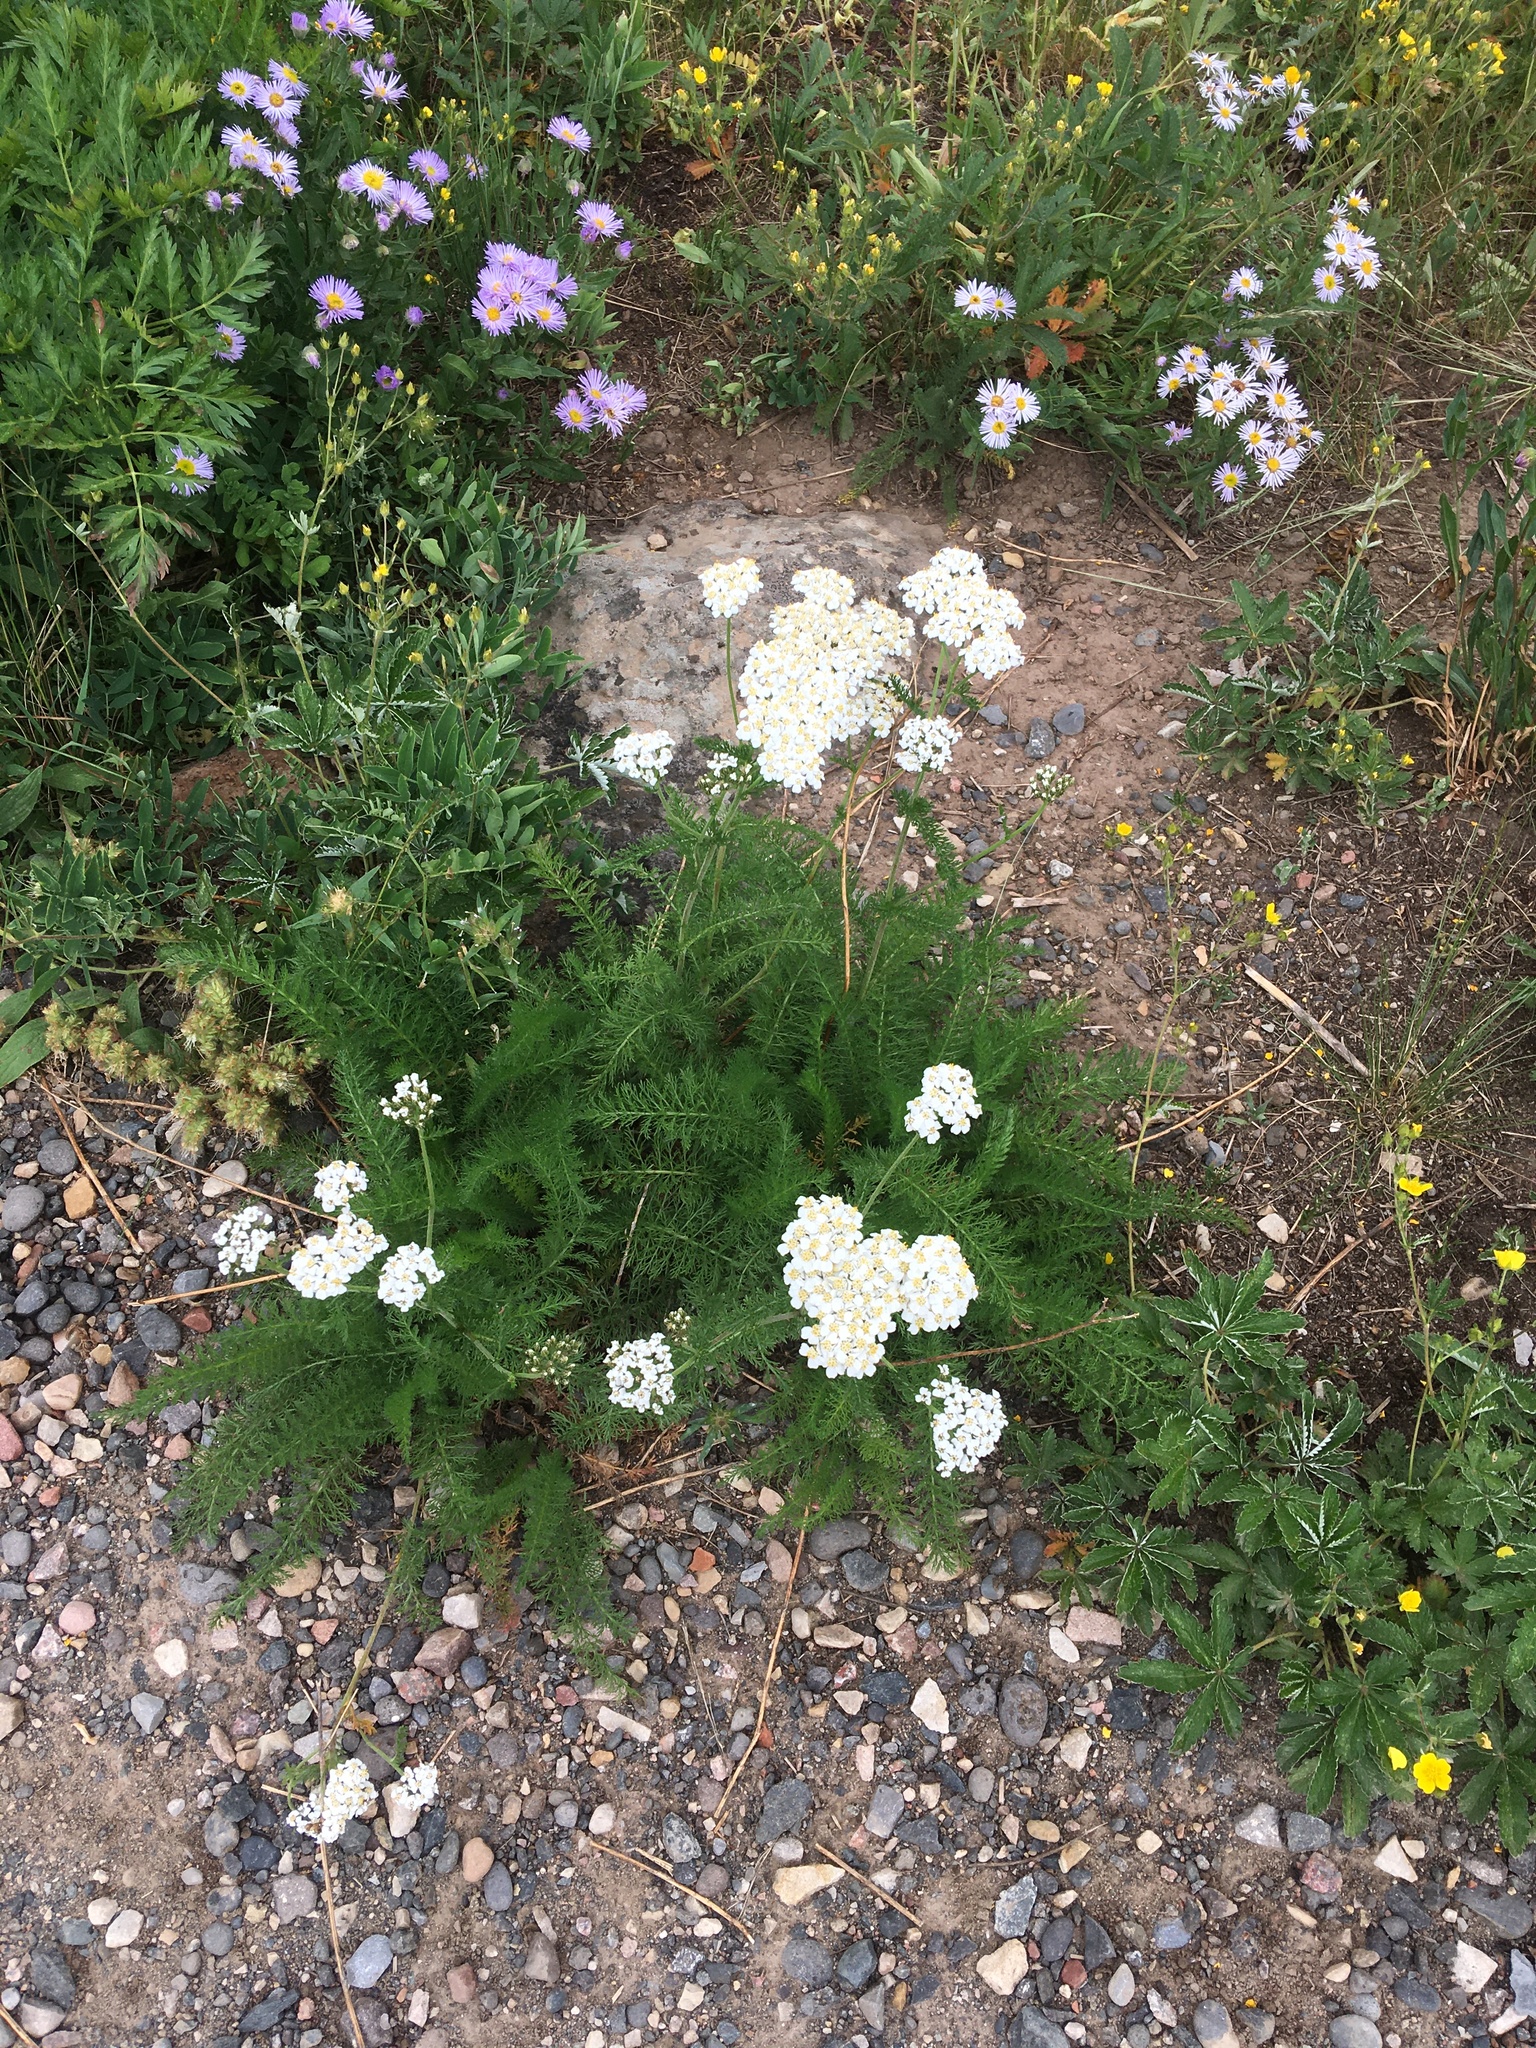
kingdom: Plantae
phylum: Tracheophyta
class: Magnoliopsida
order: Asterales
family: Asteraceae
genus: Achillea
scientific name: Achillea millefolium
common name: Yarrow
